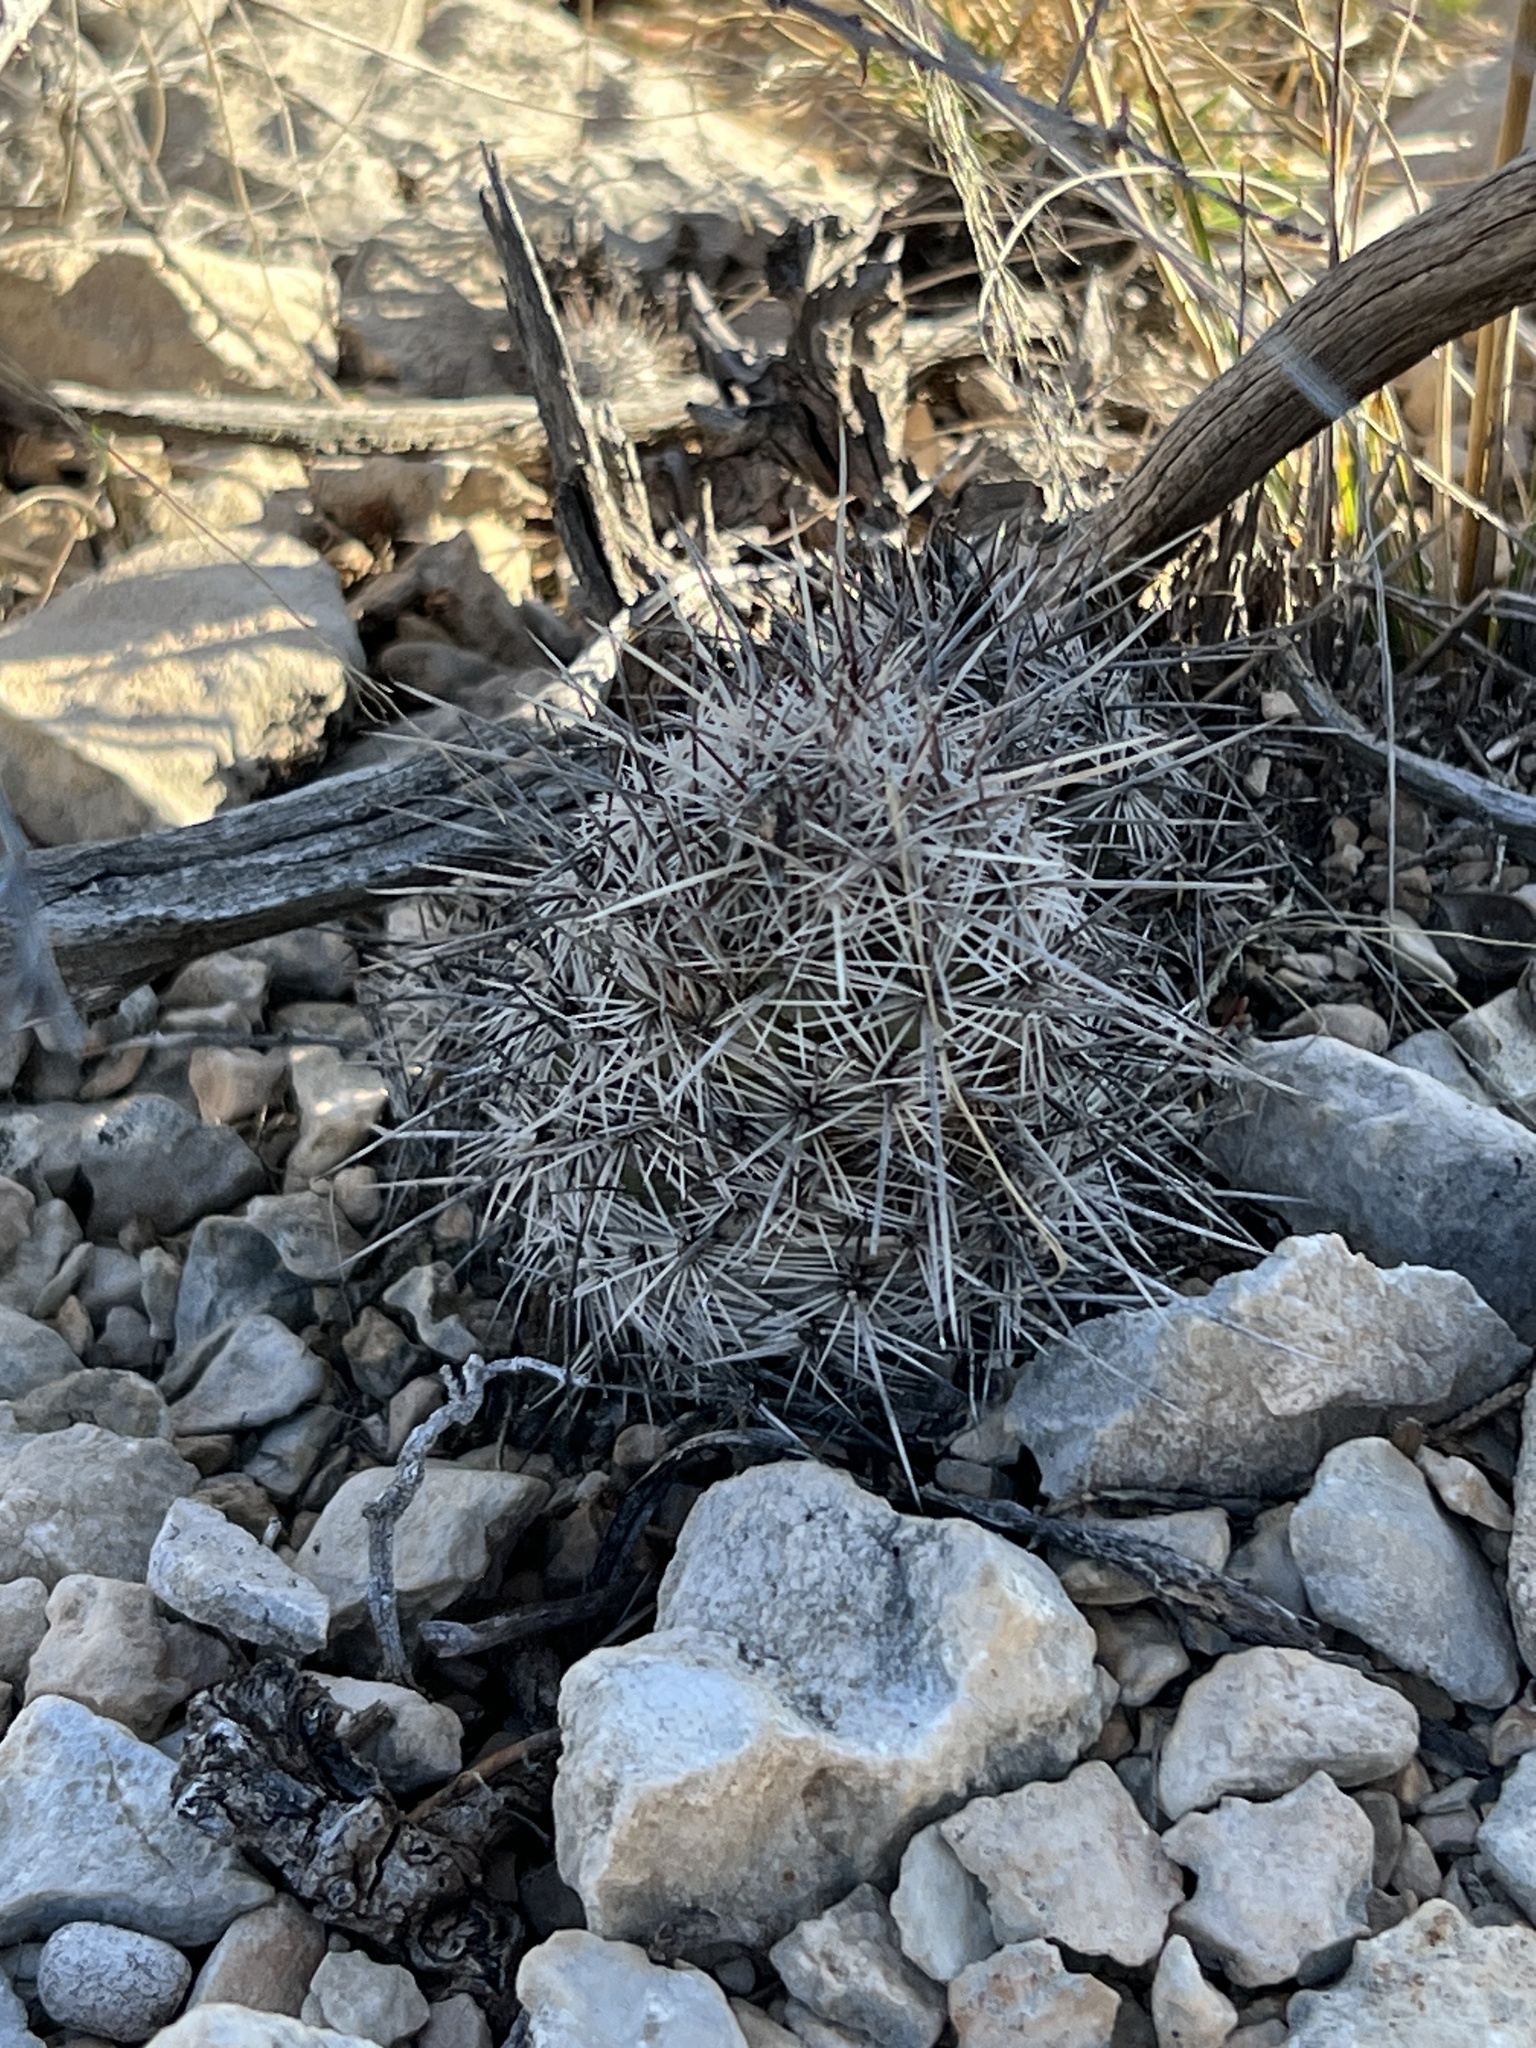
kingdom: Plantae
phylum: Tracheophyta
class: Magnoliopsida
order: Caryophyllales
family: Cactaceae
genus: Cochemiea
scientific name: Cochemiea conoidea
